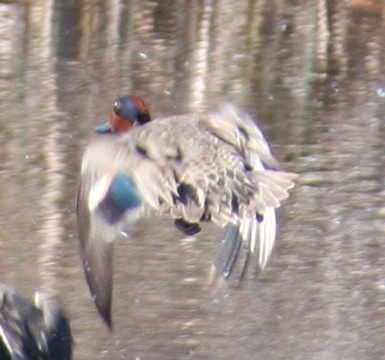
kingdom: Animalia
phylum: Chordata
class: Aves
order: Anseriformes
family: Anatidae
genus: Anas
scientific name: Anas crecca
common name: Eurasian teal
